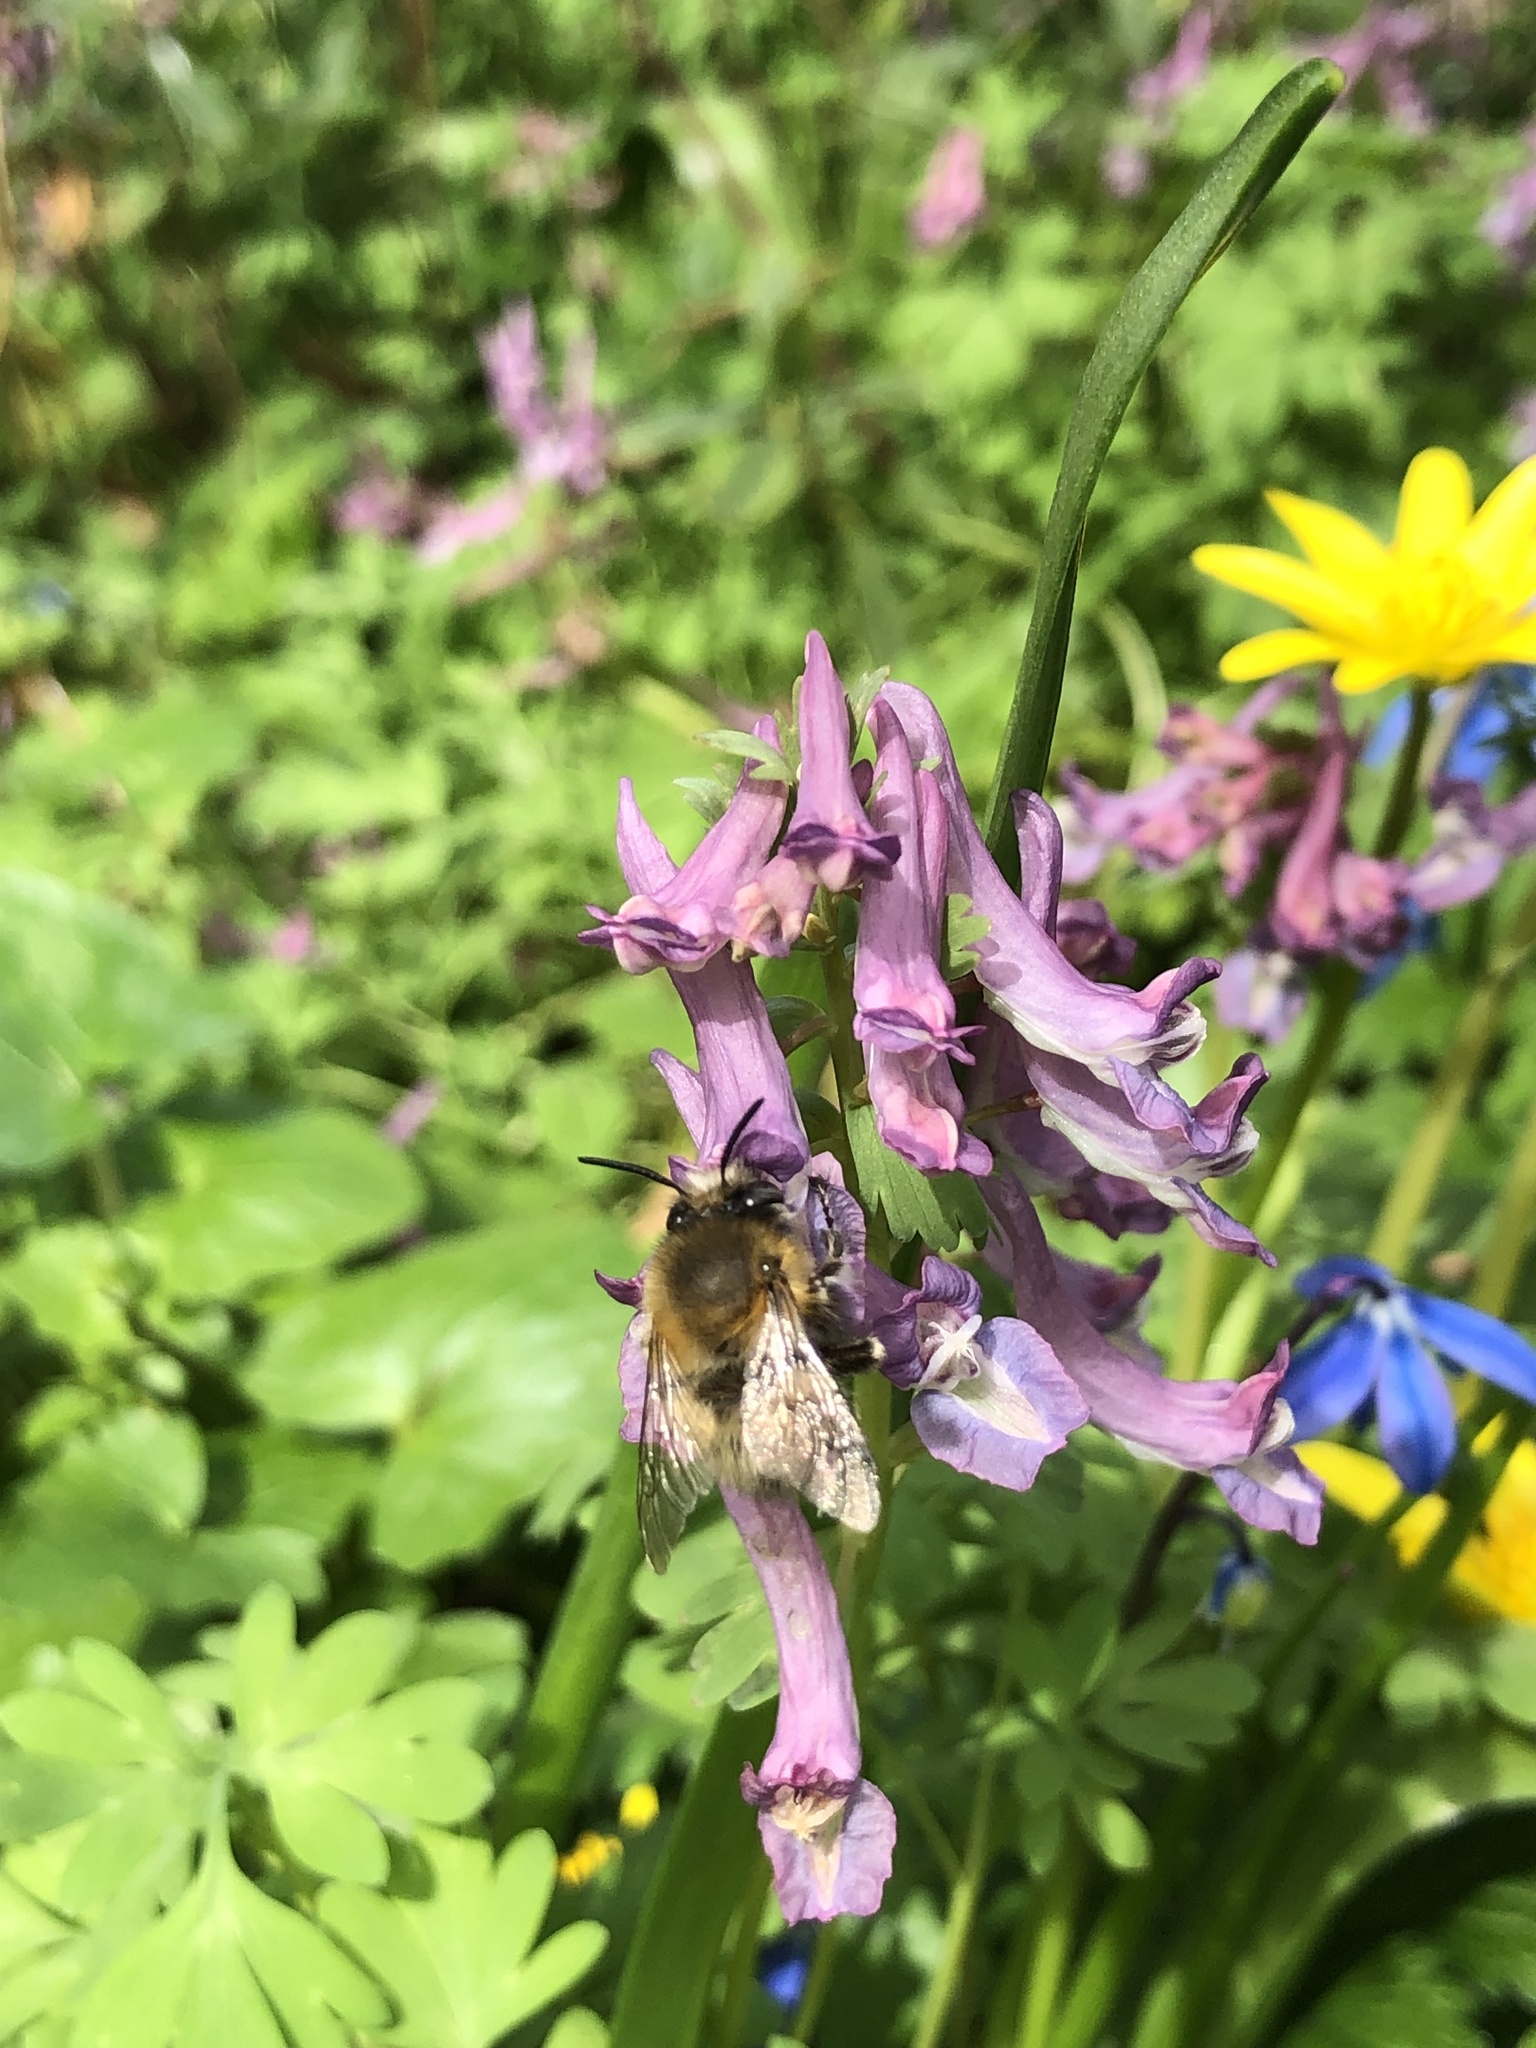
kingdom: Animalia
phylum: Arthropoda
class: Insecta
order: Hymenoptera
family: Apidae
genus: Anthophora
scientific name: Anthophora plumipes
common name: Hairy-footed flower bee
